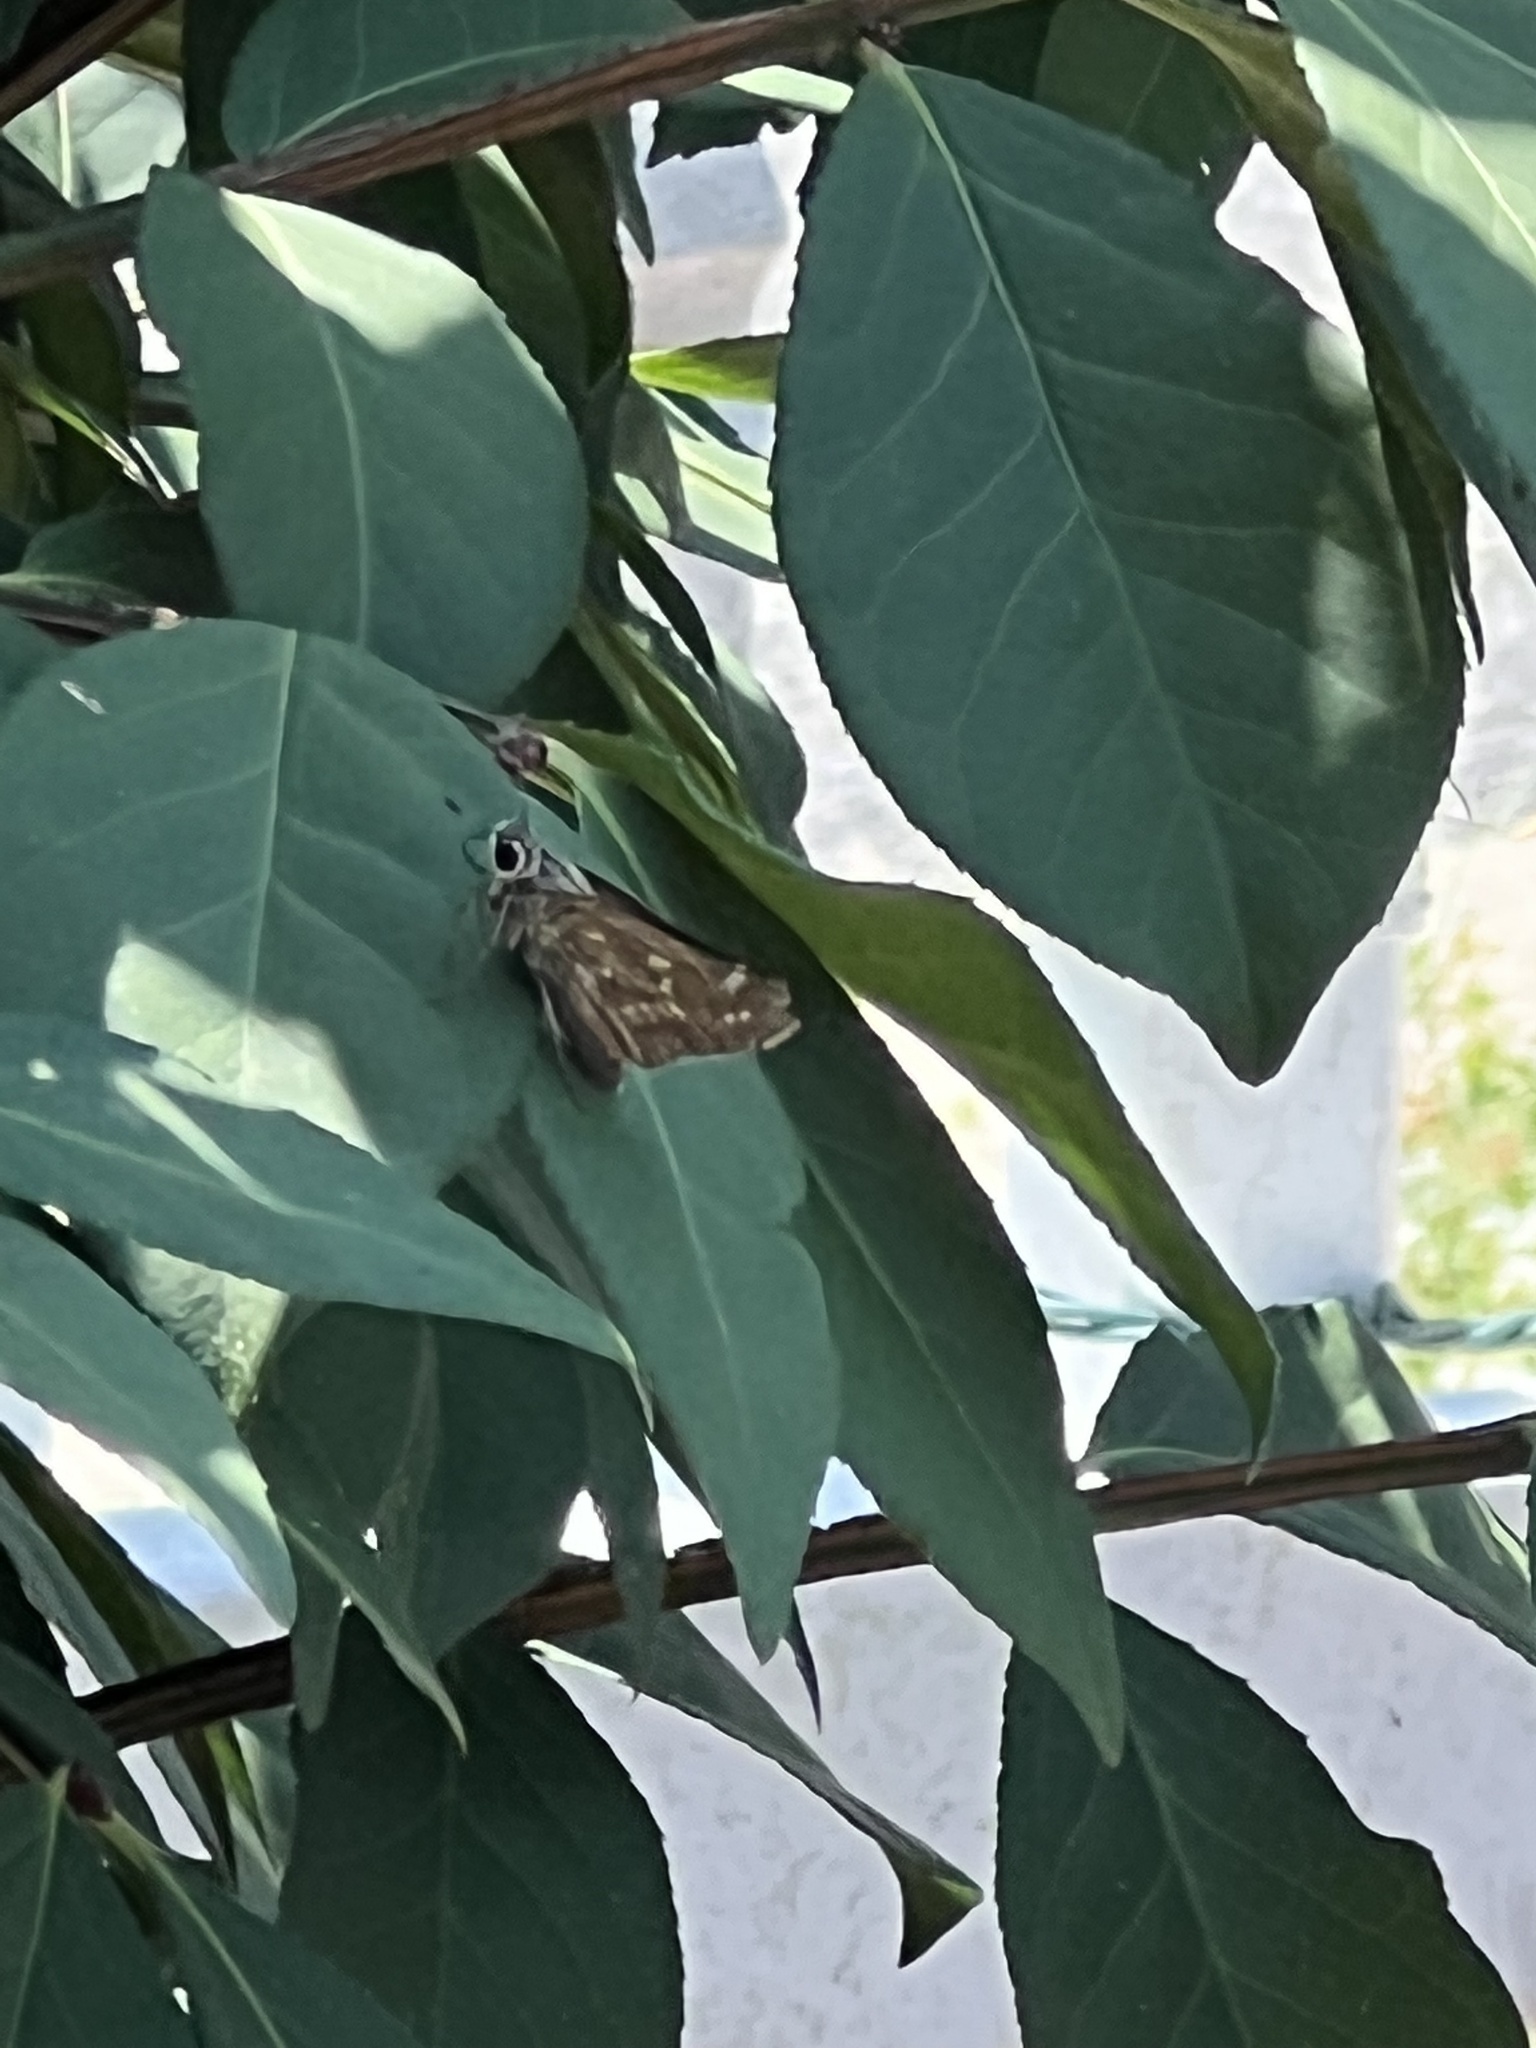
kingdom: Animalia
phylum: Arthropoda
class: Insecta
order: Lepidoptera
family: Hesperiidae
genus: Atalopedes
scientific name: Atalopedes
